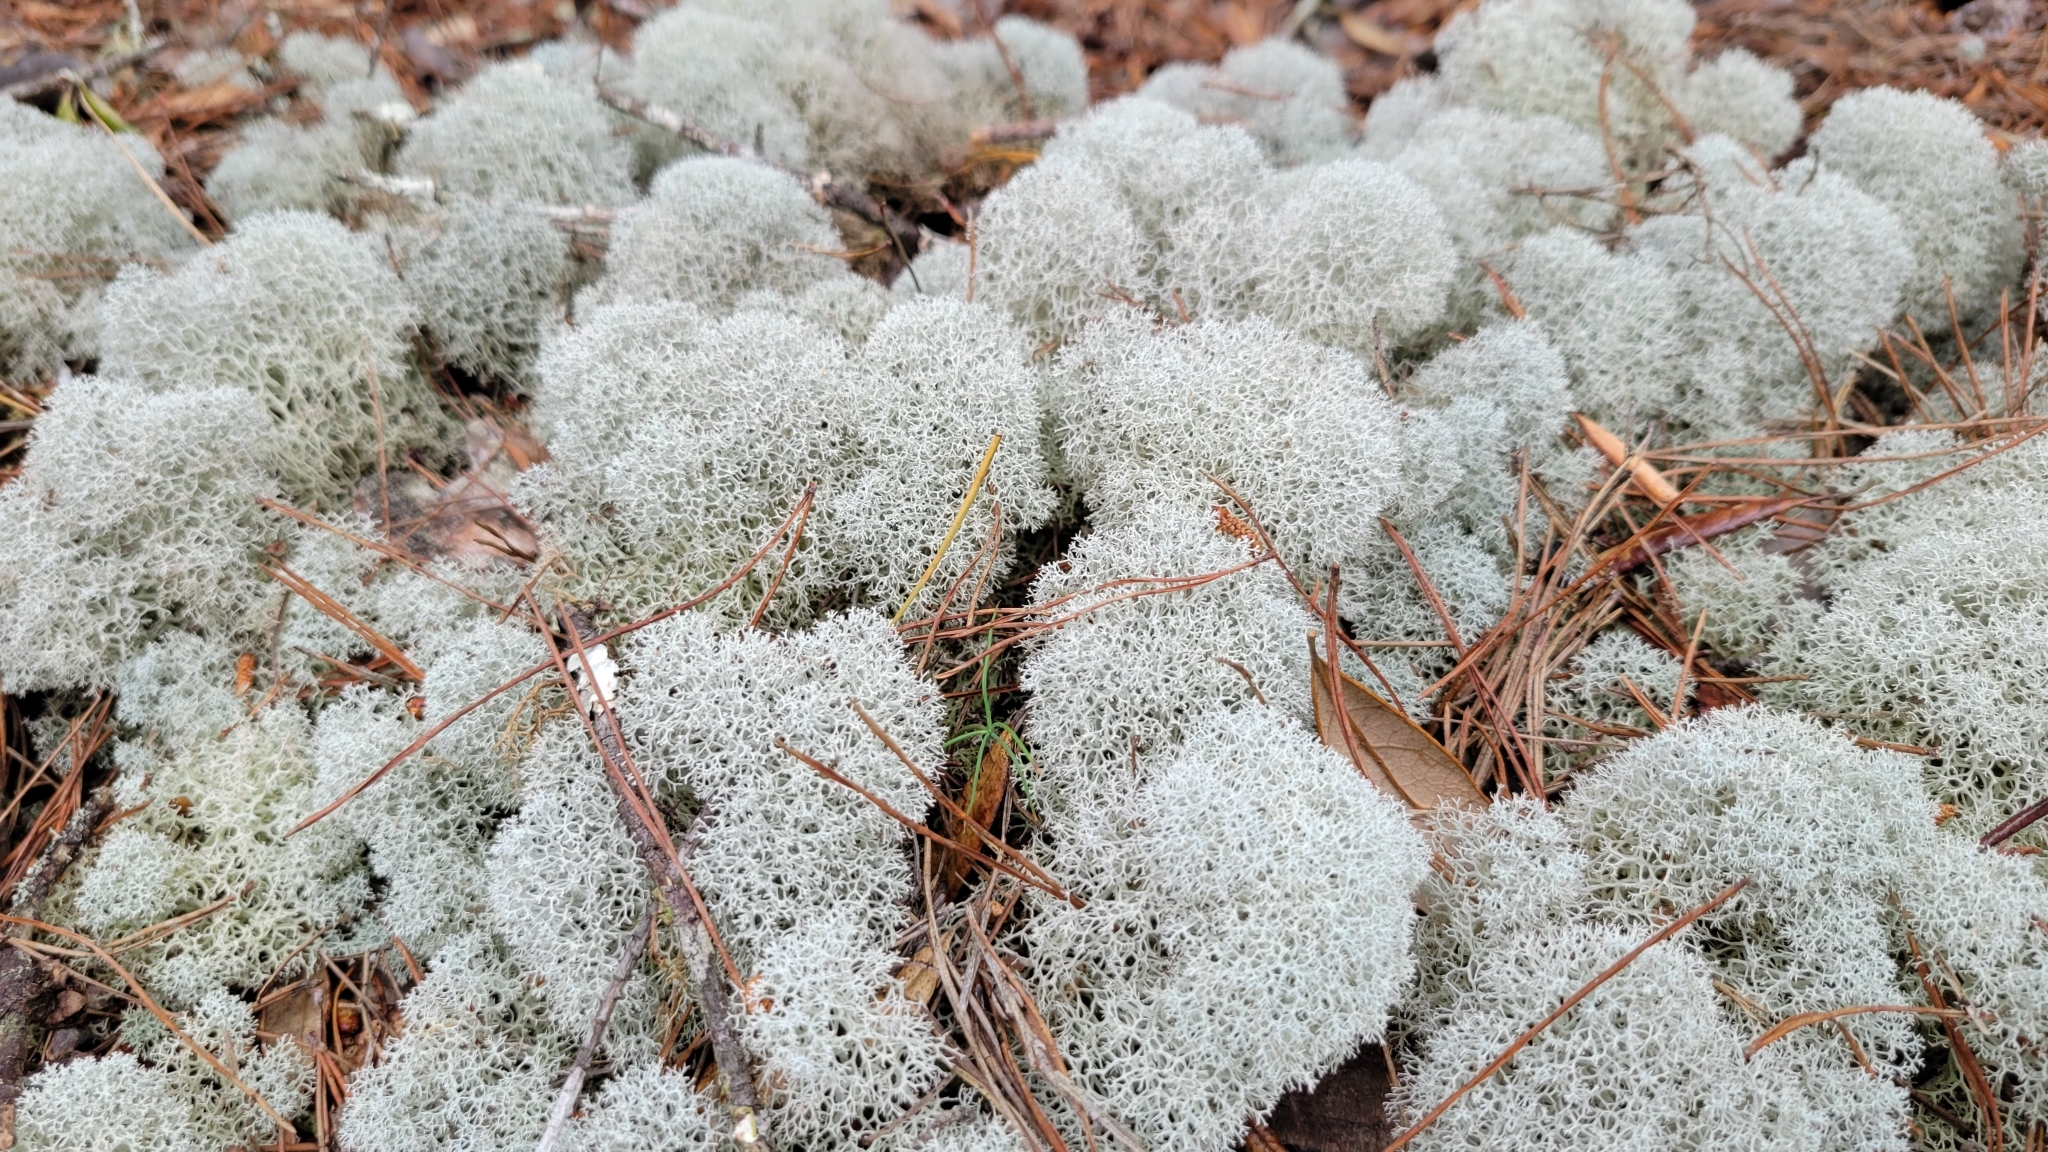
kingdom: Fungi
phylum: Ascomycota
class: Lecanoromycetes
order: Lecanorales
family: Cladoniaceae
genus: Cladonia
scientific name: Cladonia evansii
